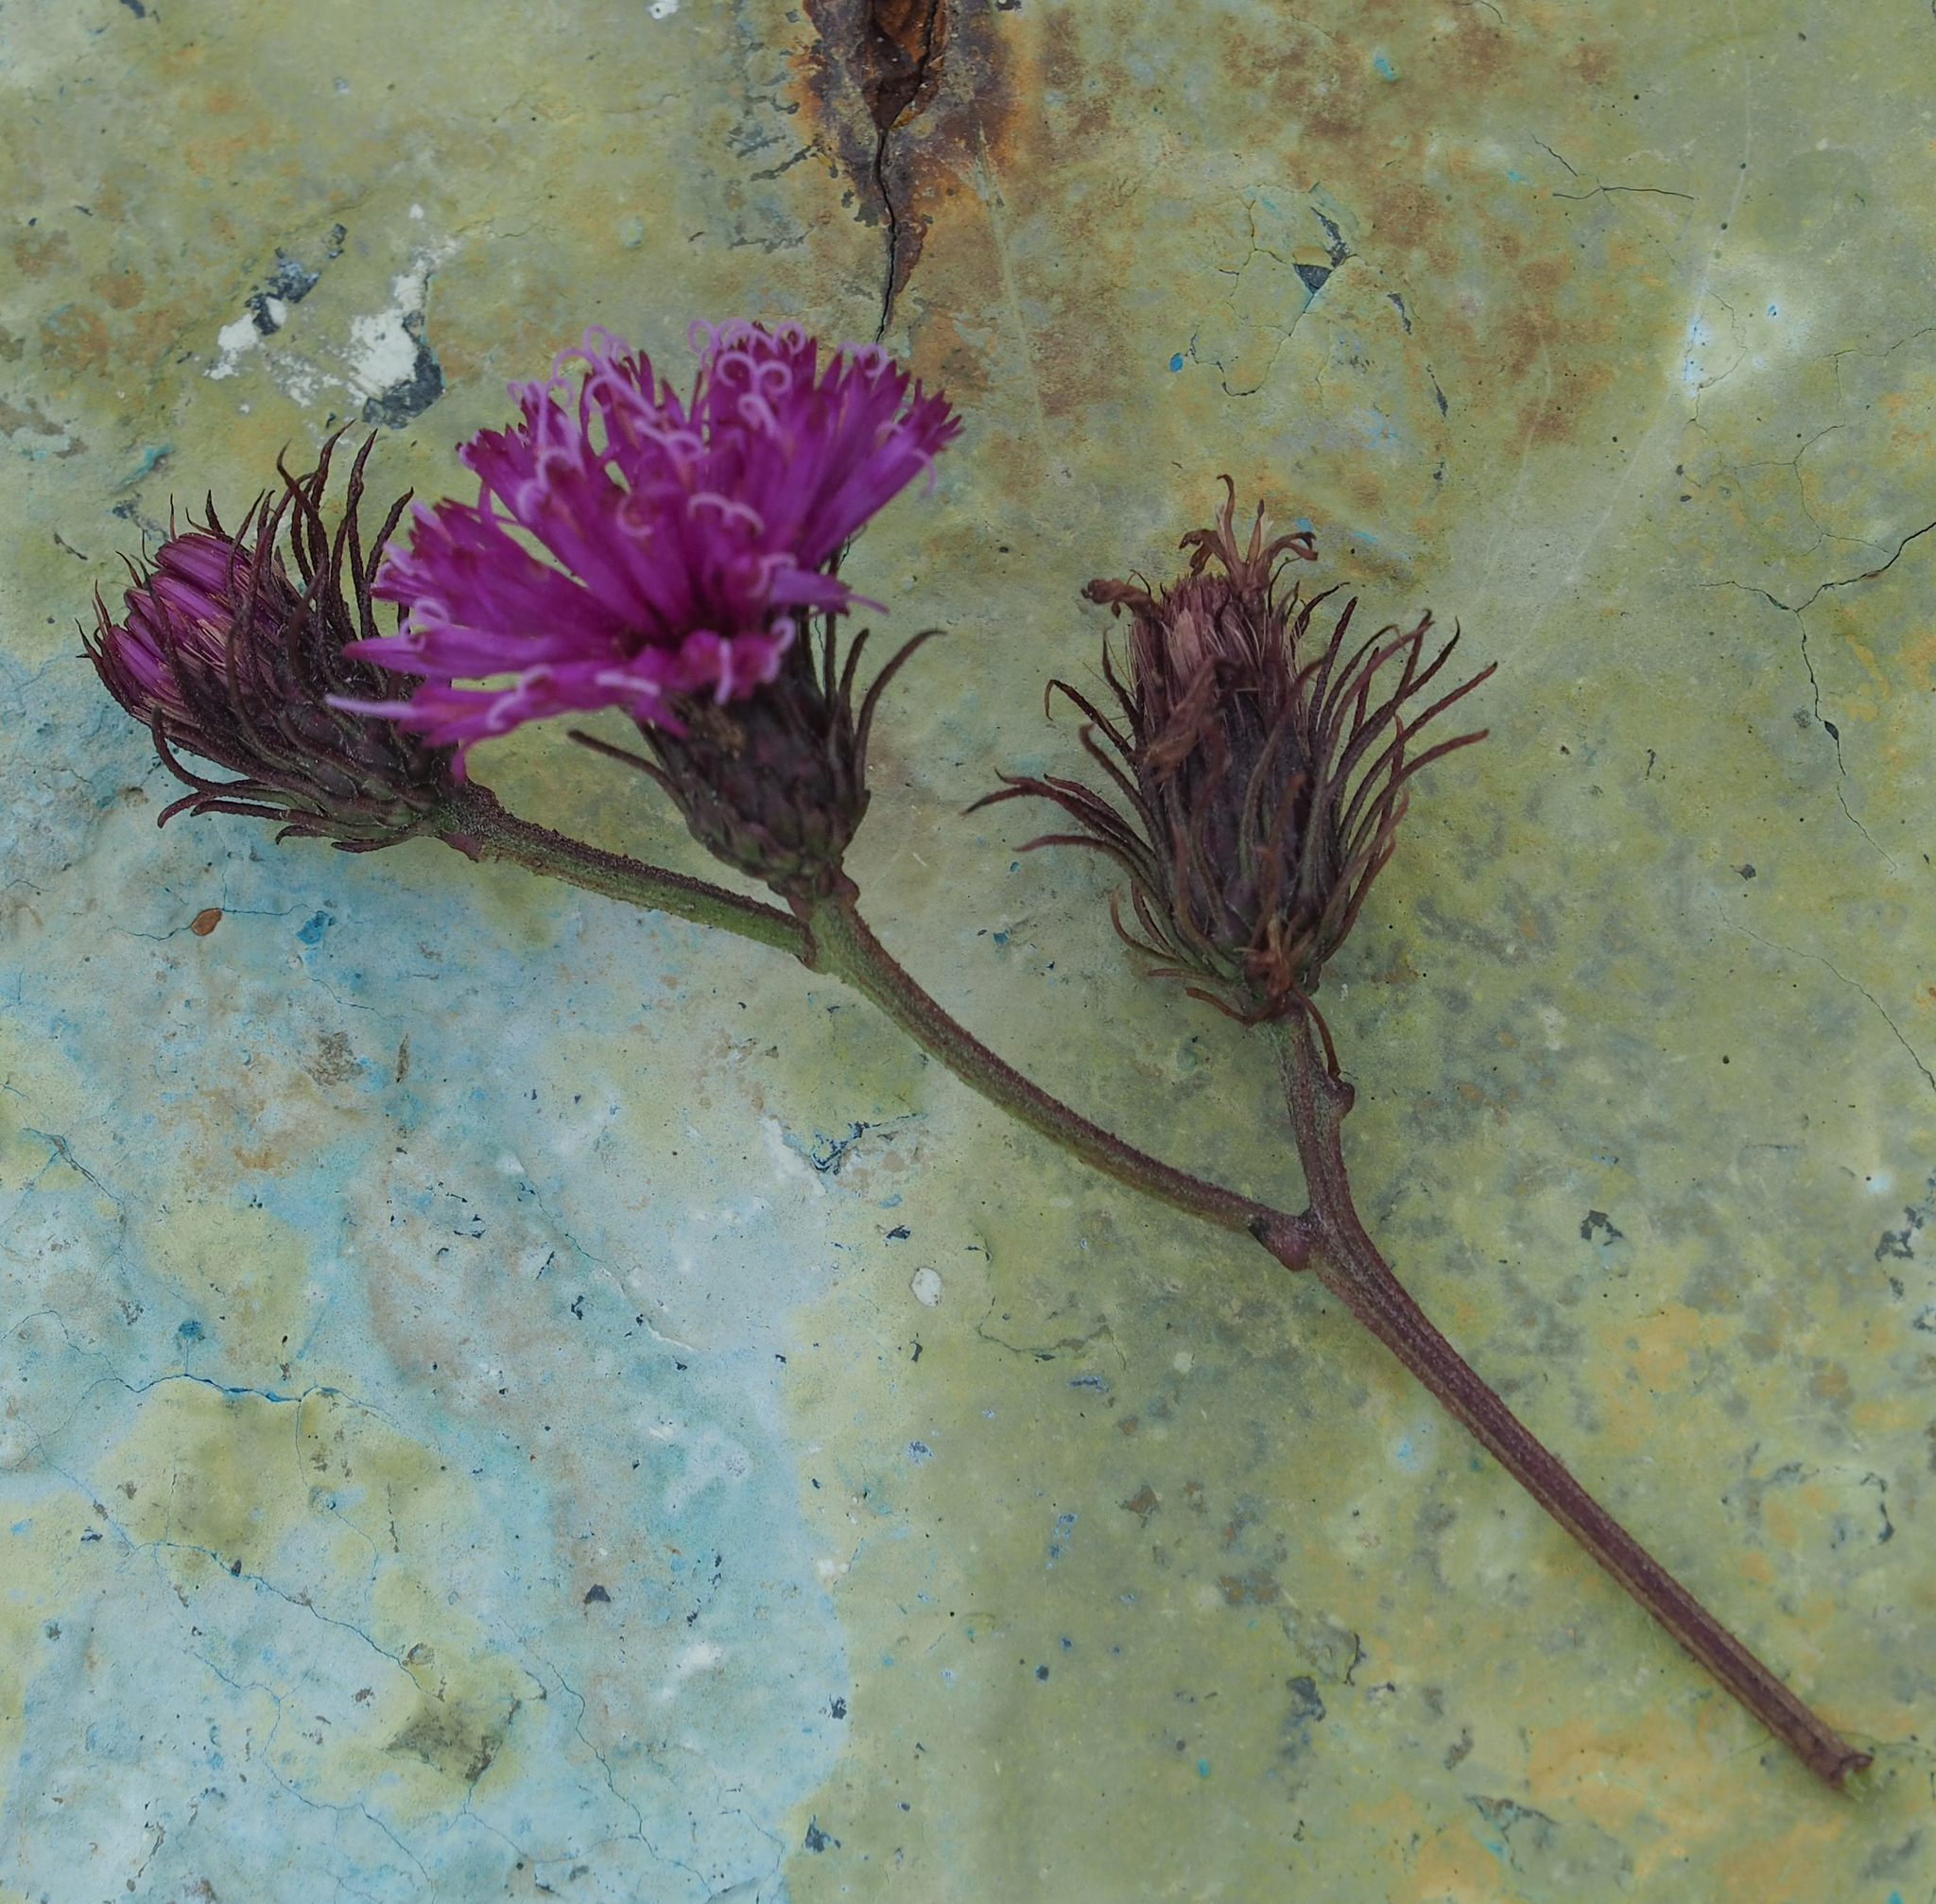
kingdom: Plantae
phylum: Tracheophyta
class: Magnoliopsida
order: Asterales
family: Asteraceae
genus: Vernonia
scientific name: Vernonia noveboracensis
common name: New york ironweed
